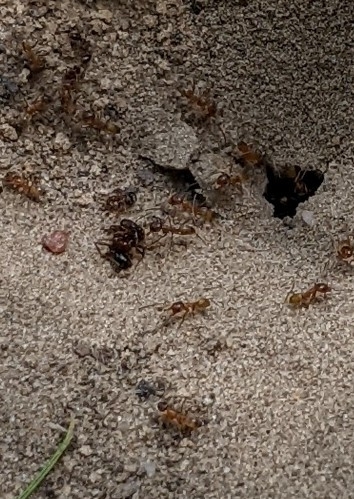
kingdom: Animalia
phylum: Arthropoda
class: Insecta
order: Hymenoptera
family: Formicidae
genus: Dorymyrmex
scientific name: Dorymyrmex flavus
